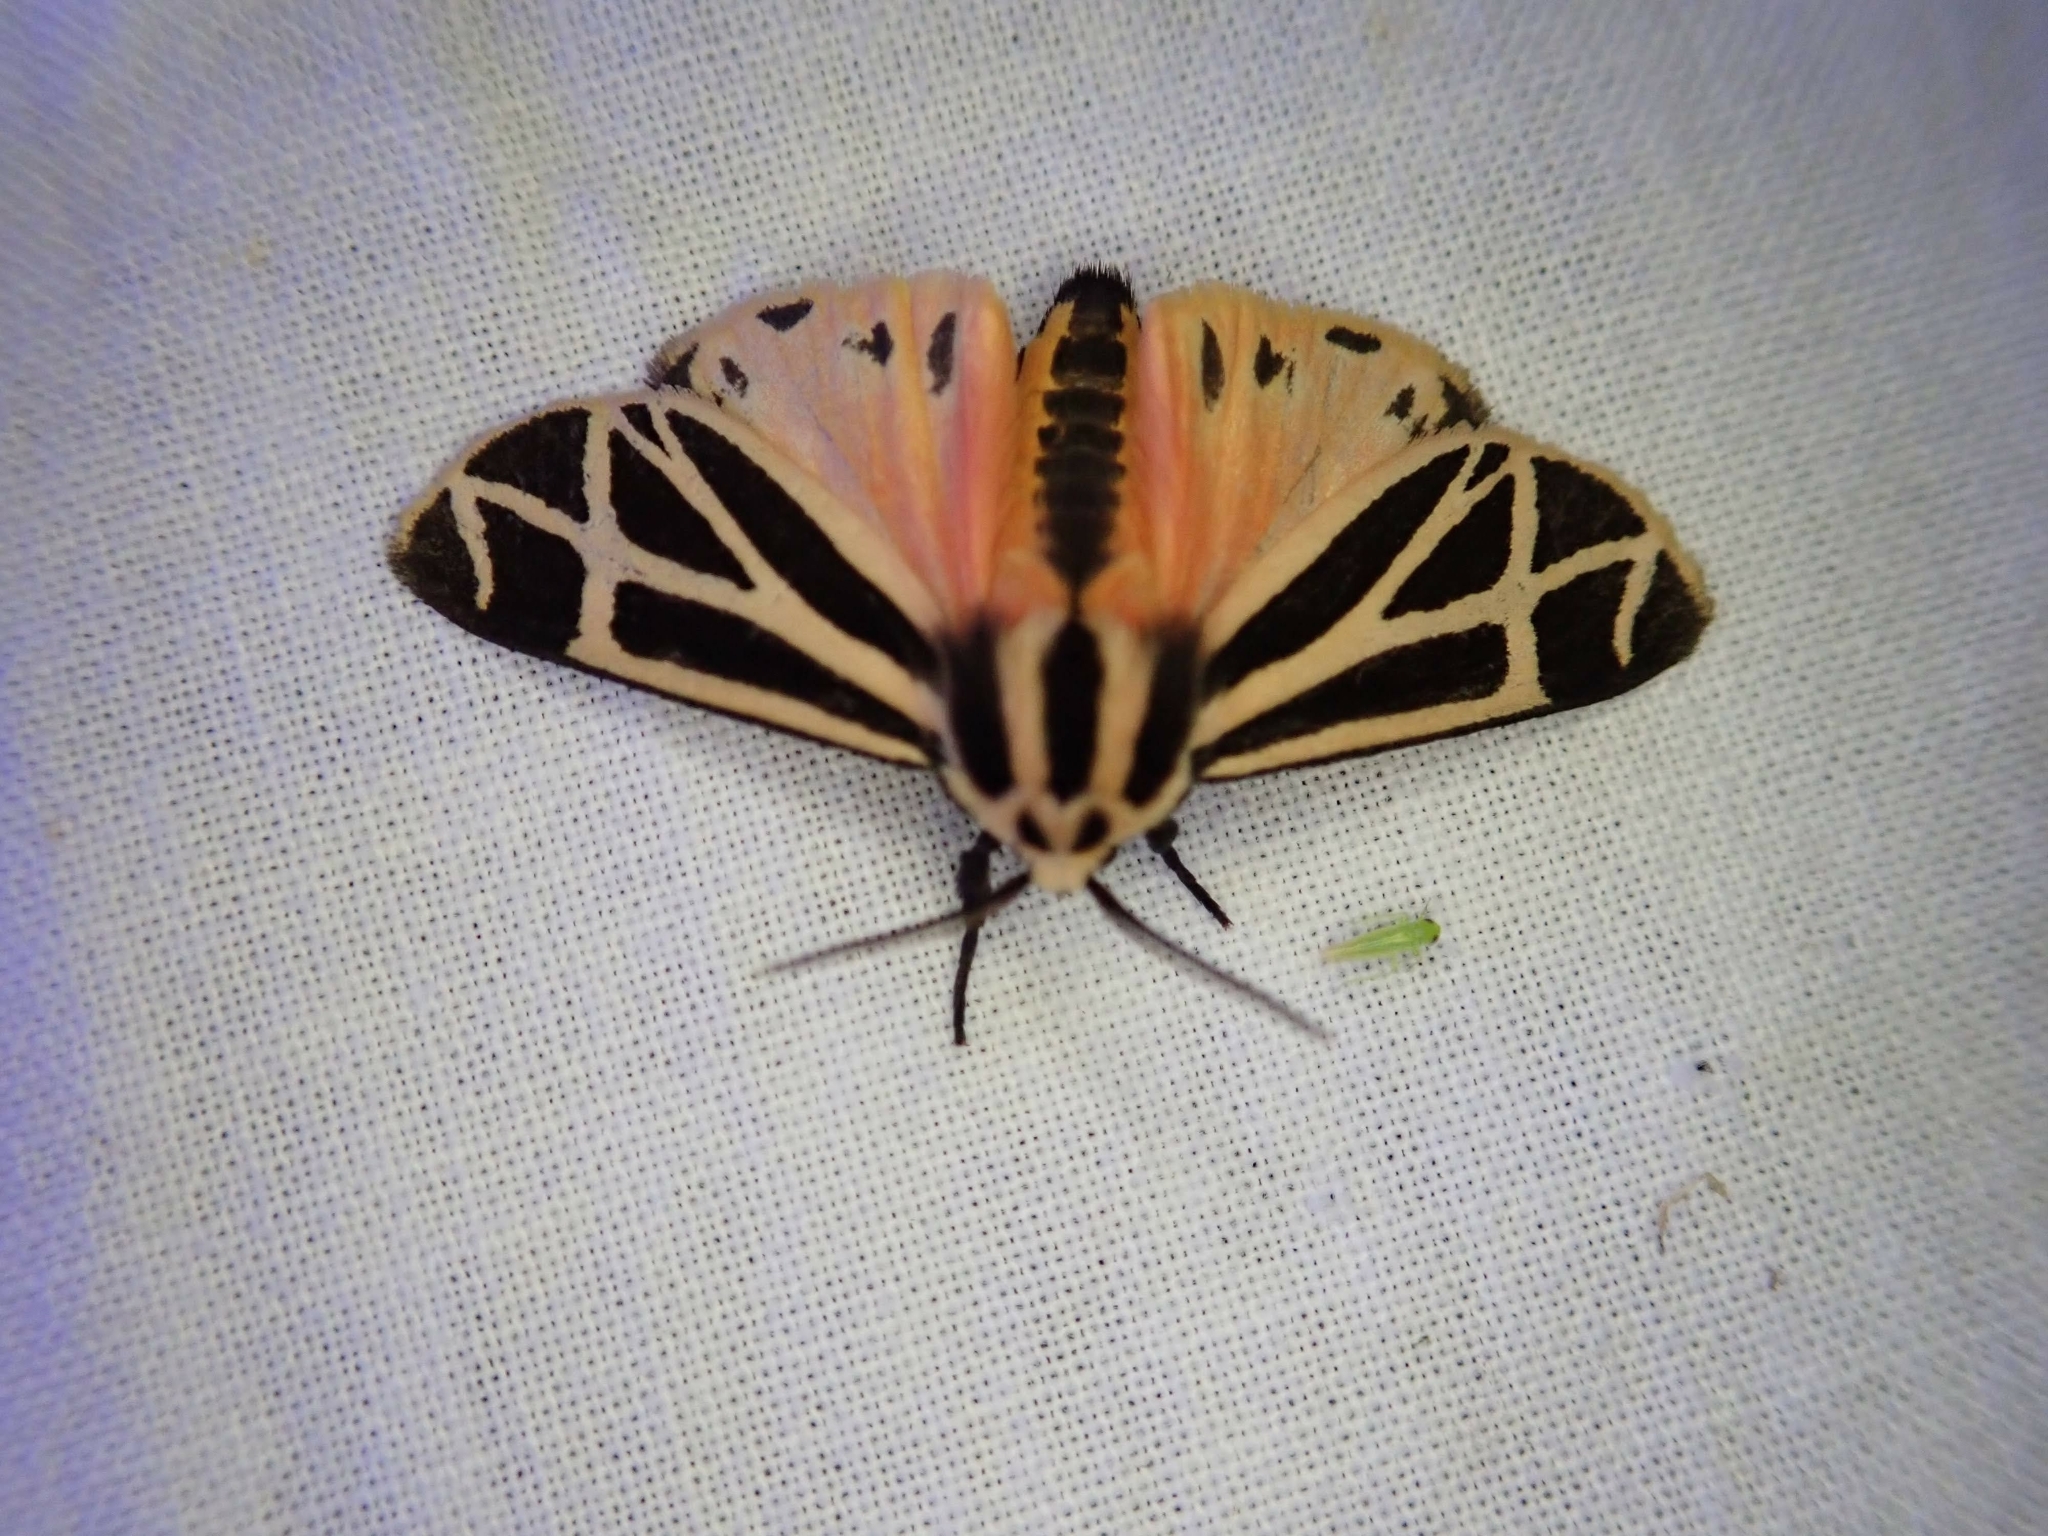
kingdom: Animalia
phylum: Arthropoda
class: Insecta
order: Lepidoptera
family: Erebidae
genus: Apantesis
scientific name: Apantesis phalerata
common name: Harnessed tiger moth
